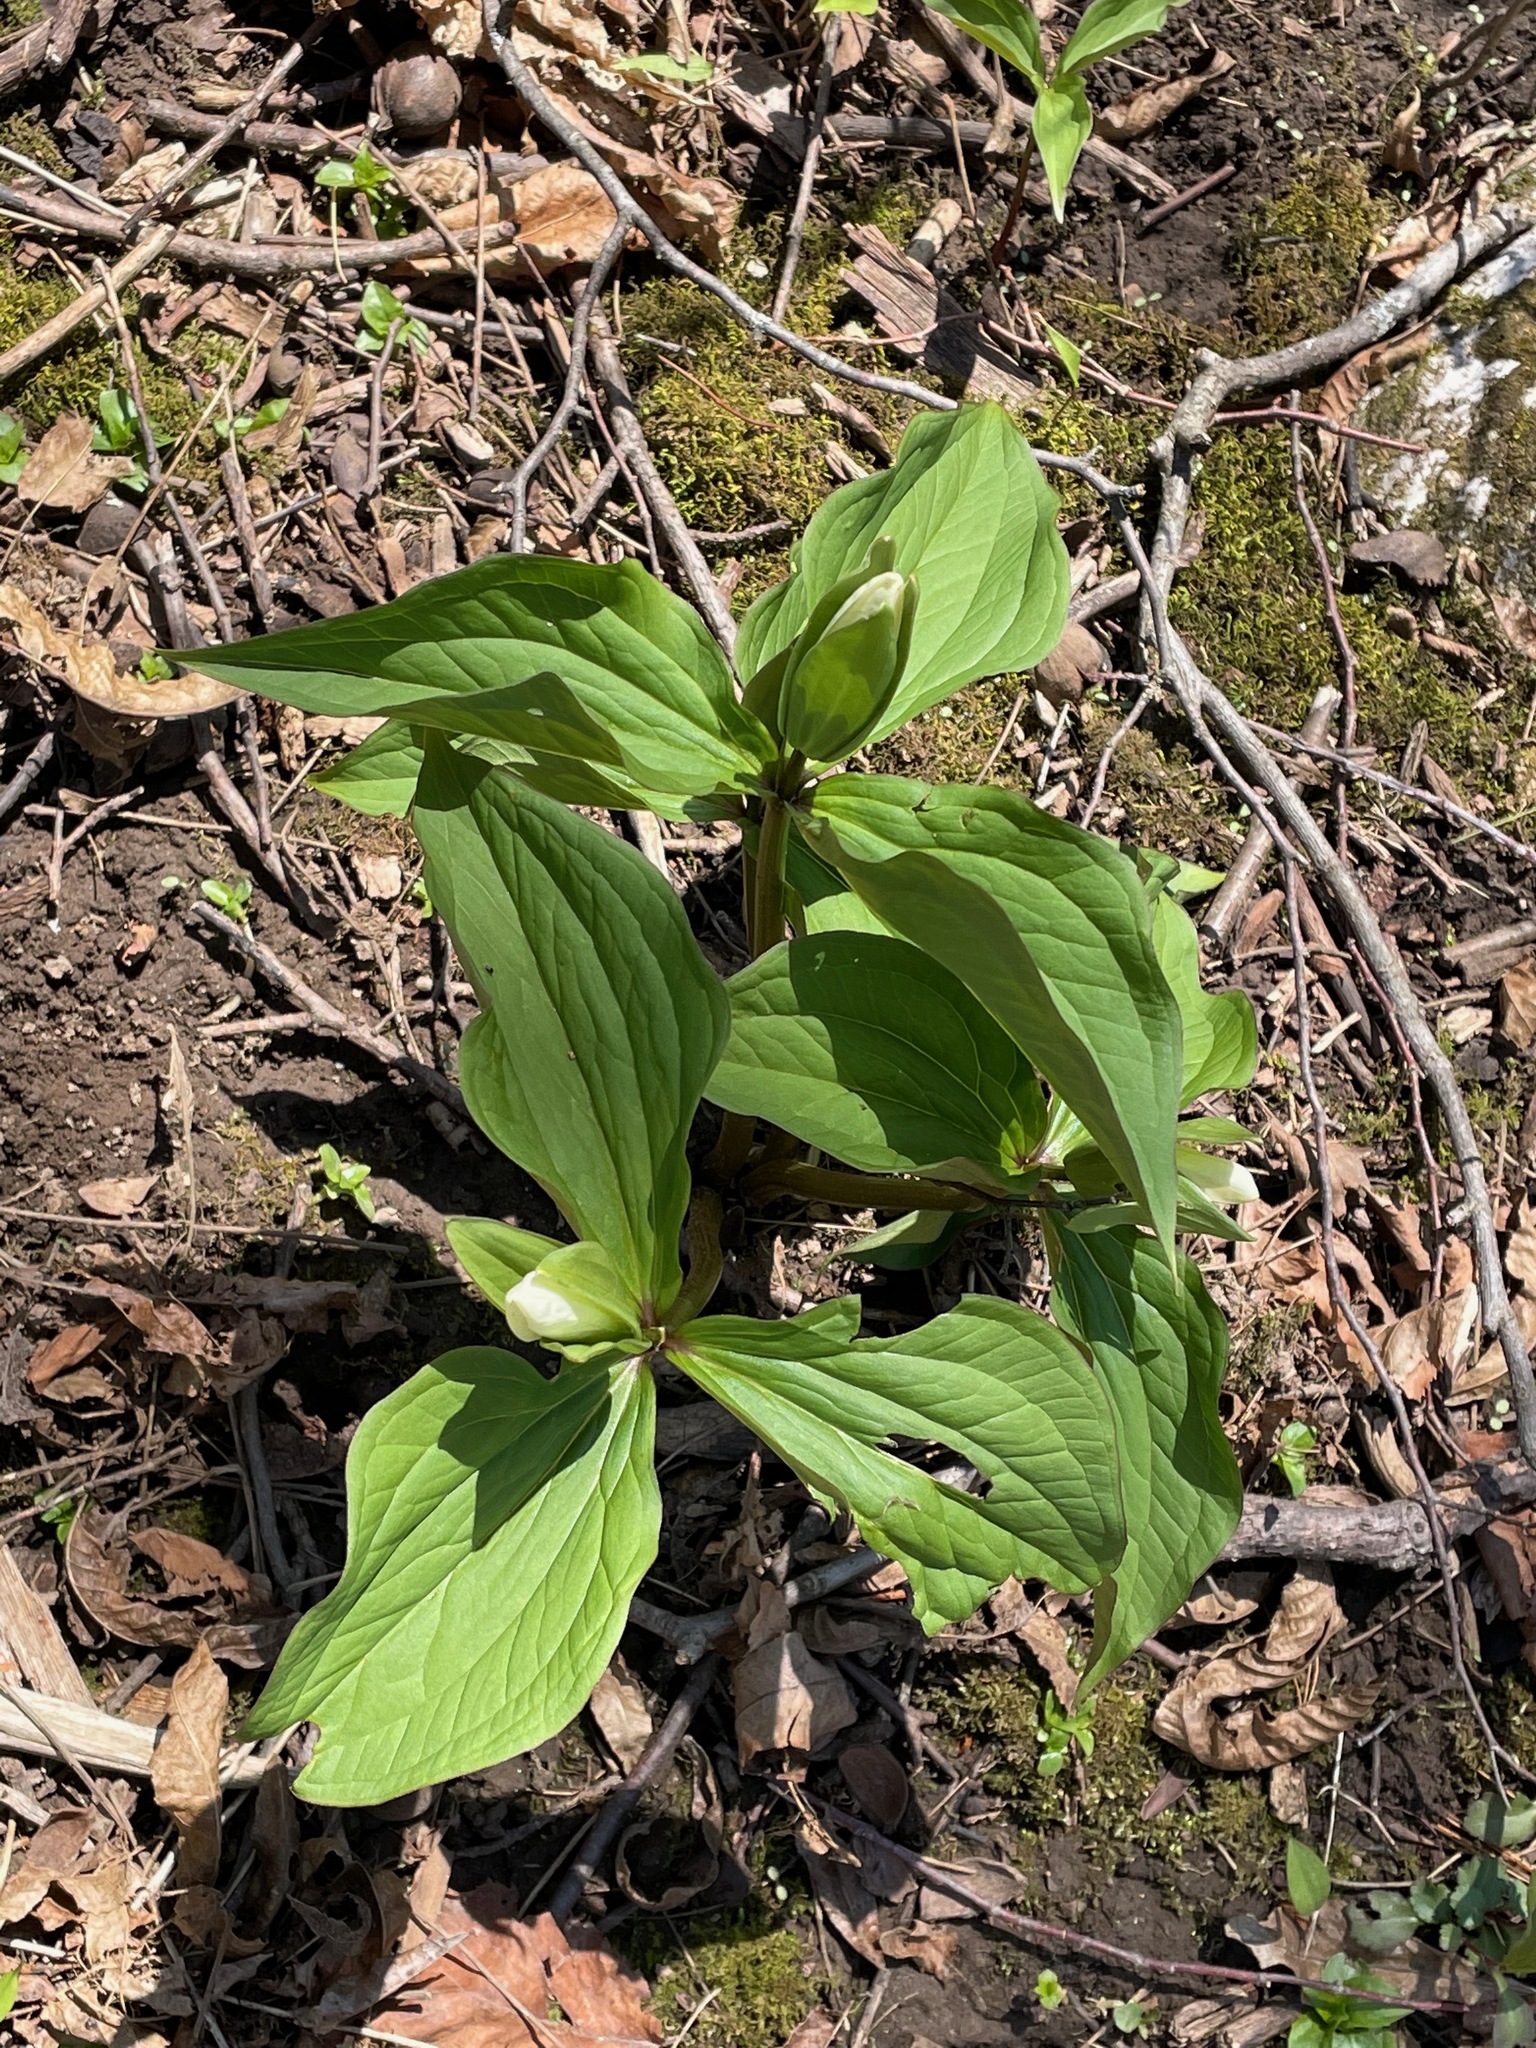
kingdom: Plantae
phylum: Tracheophyta
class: Liliopsida
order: Liliales
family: Melanthiaceae
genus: Trillium
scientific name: Trillium grandiflorum
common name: Great white trillium
